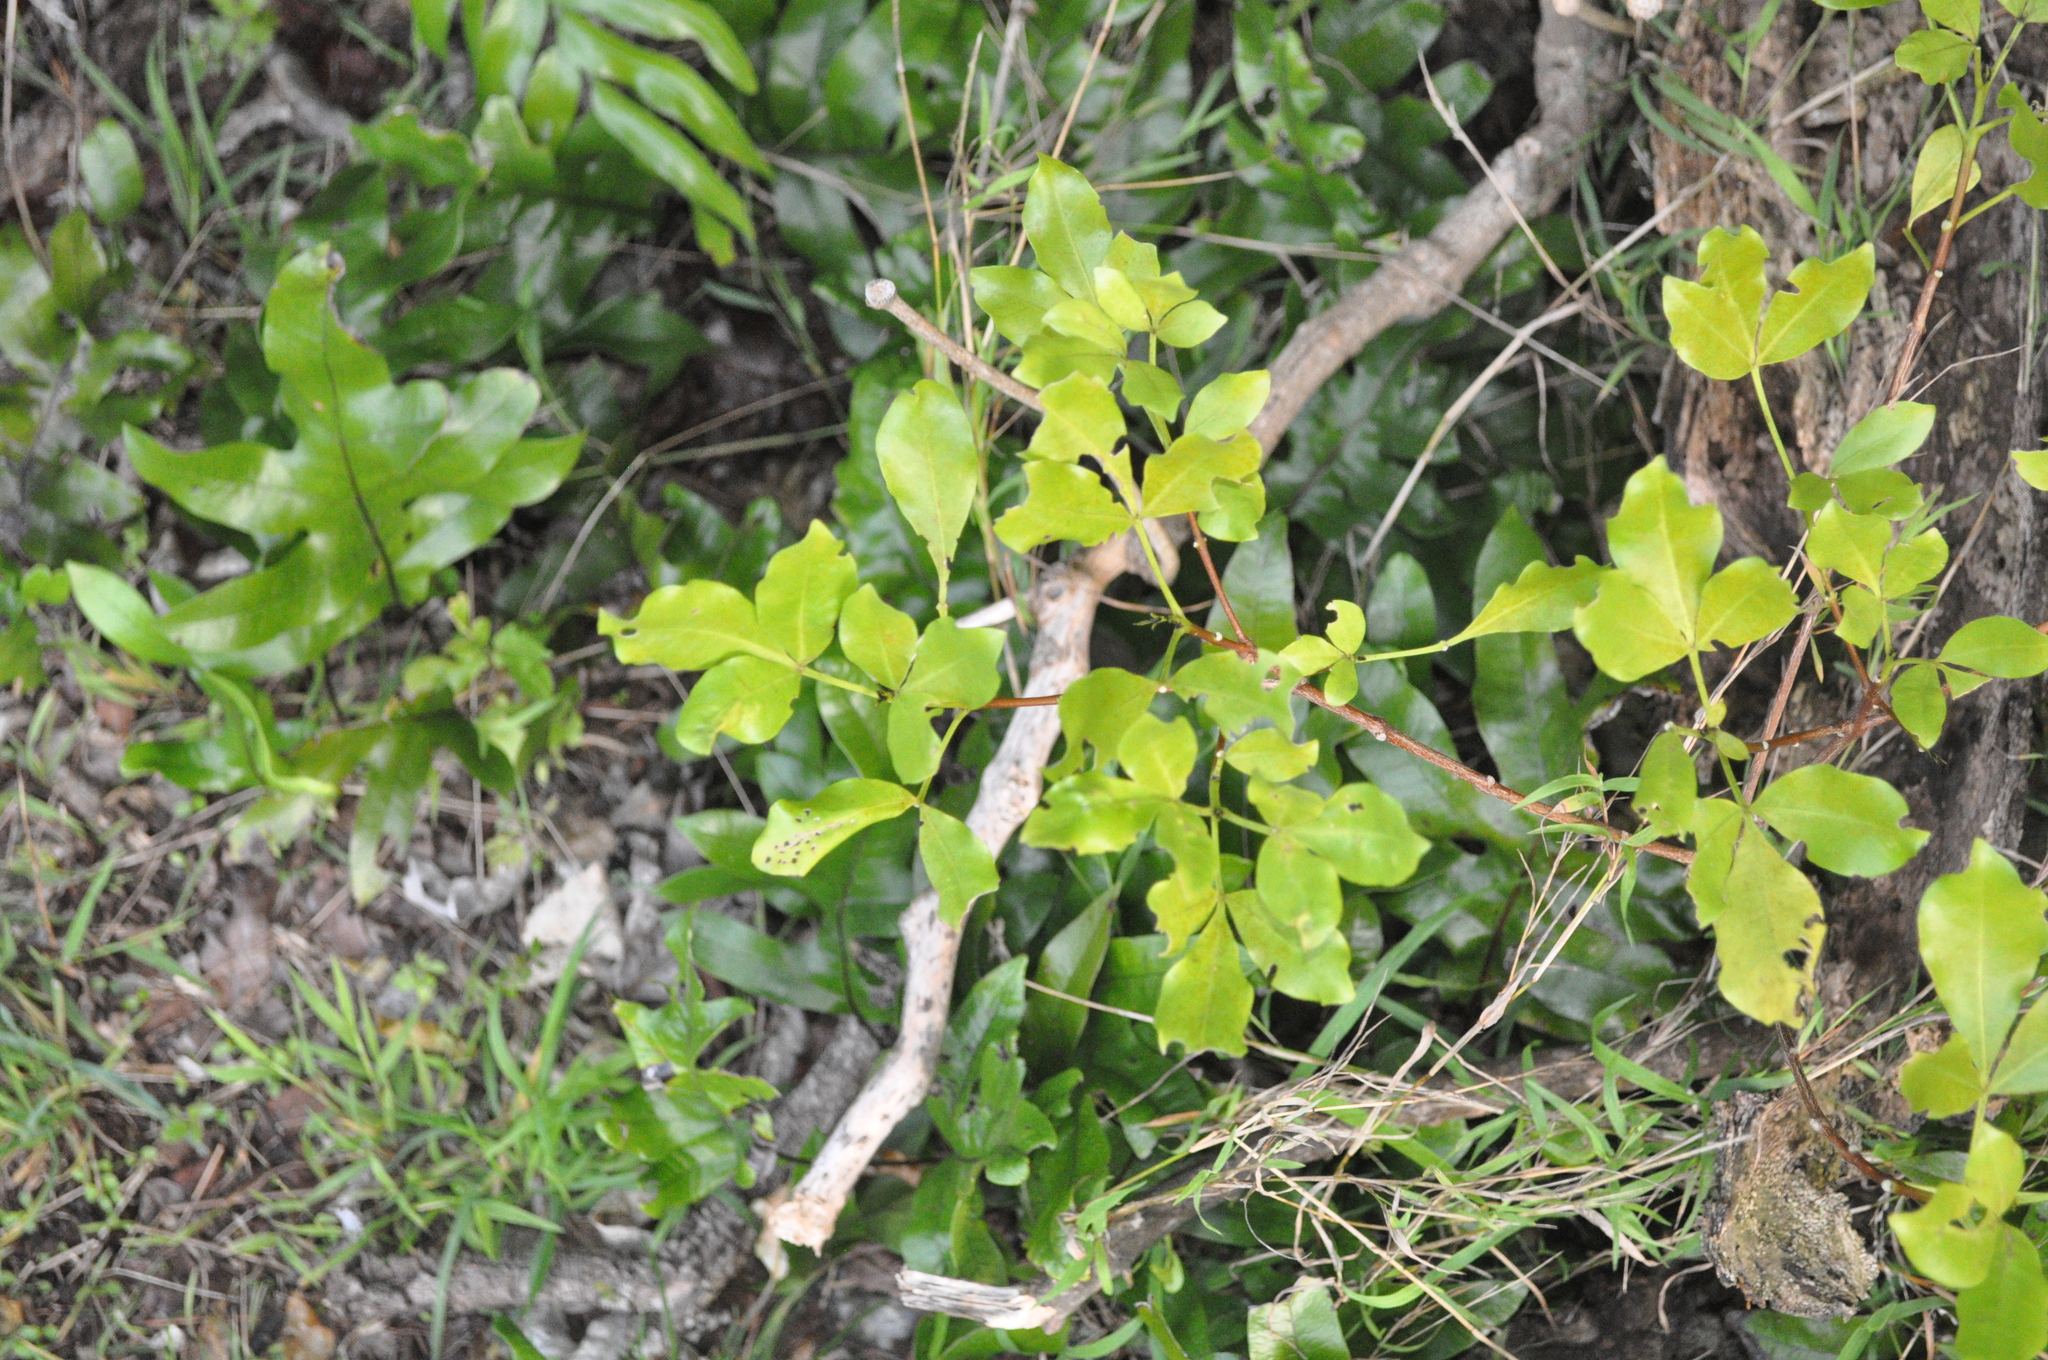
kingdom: Plantae
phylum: Tracheophyta
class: Magnoliopsida
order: Sapindales
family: Rutaceae
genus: Melicope
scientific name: Melicope ternata
